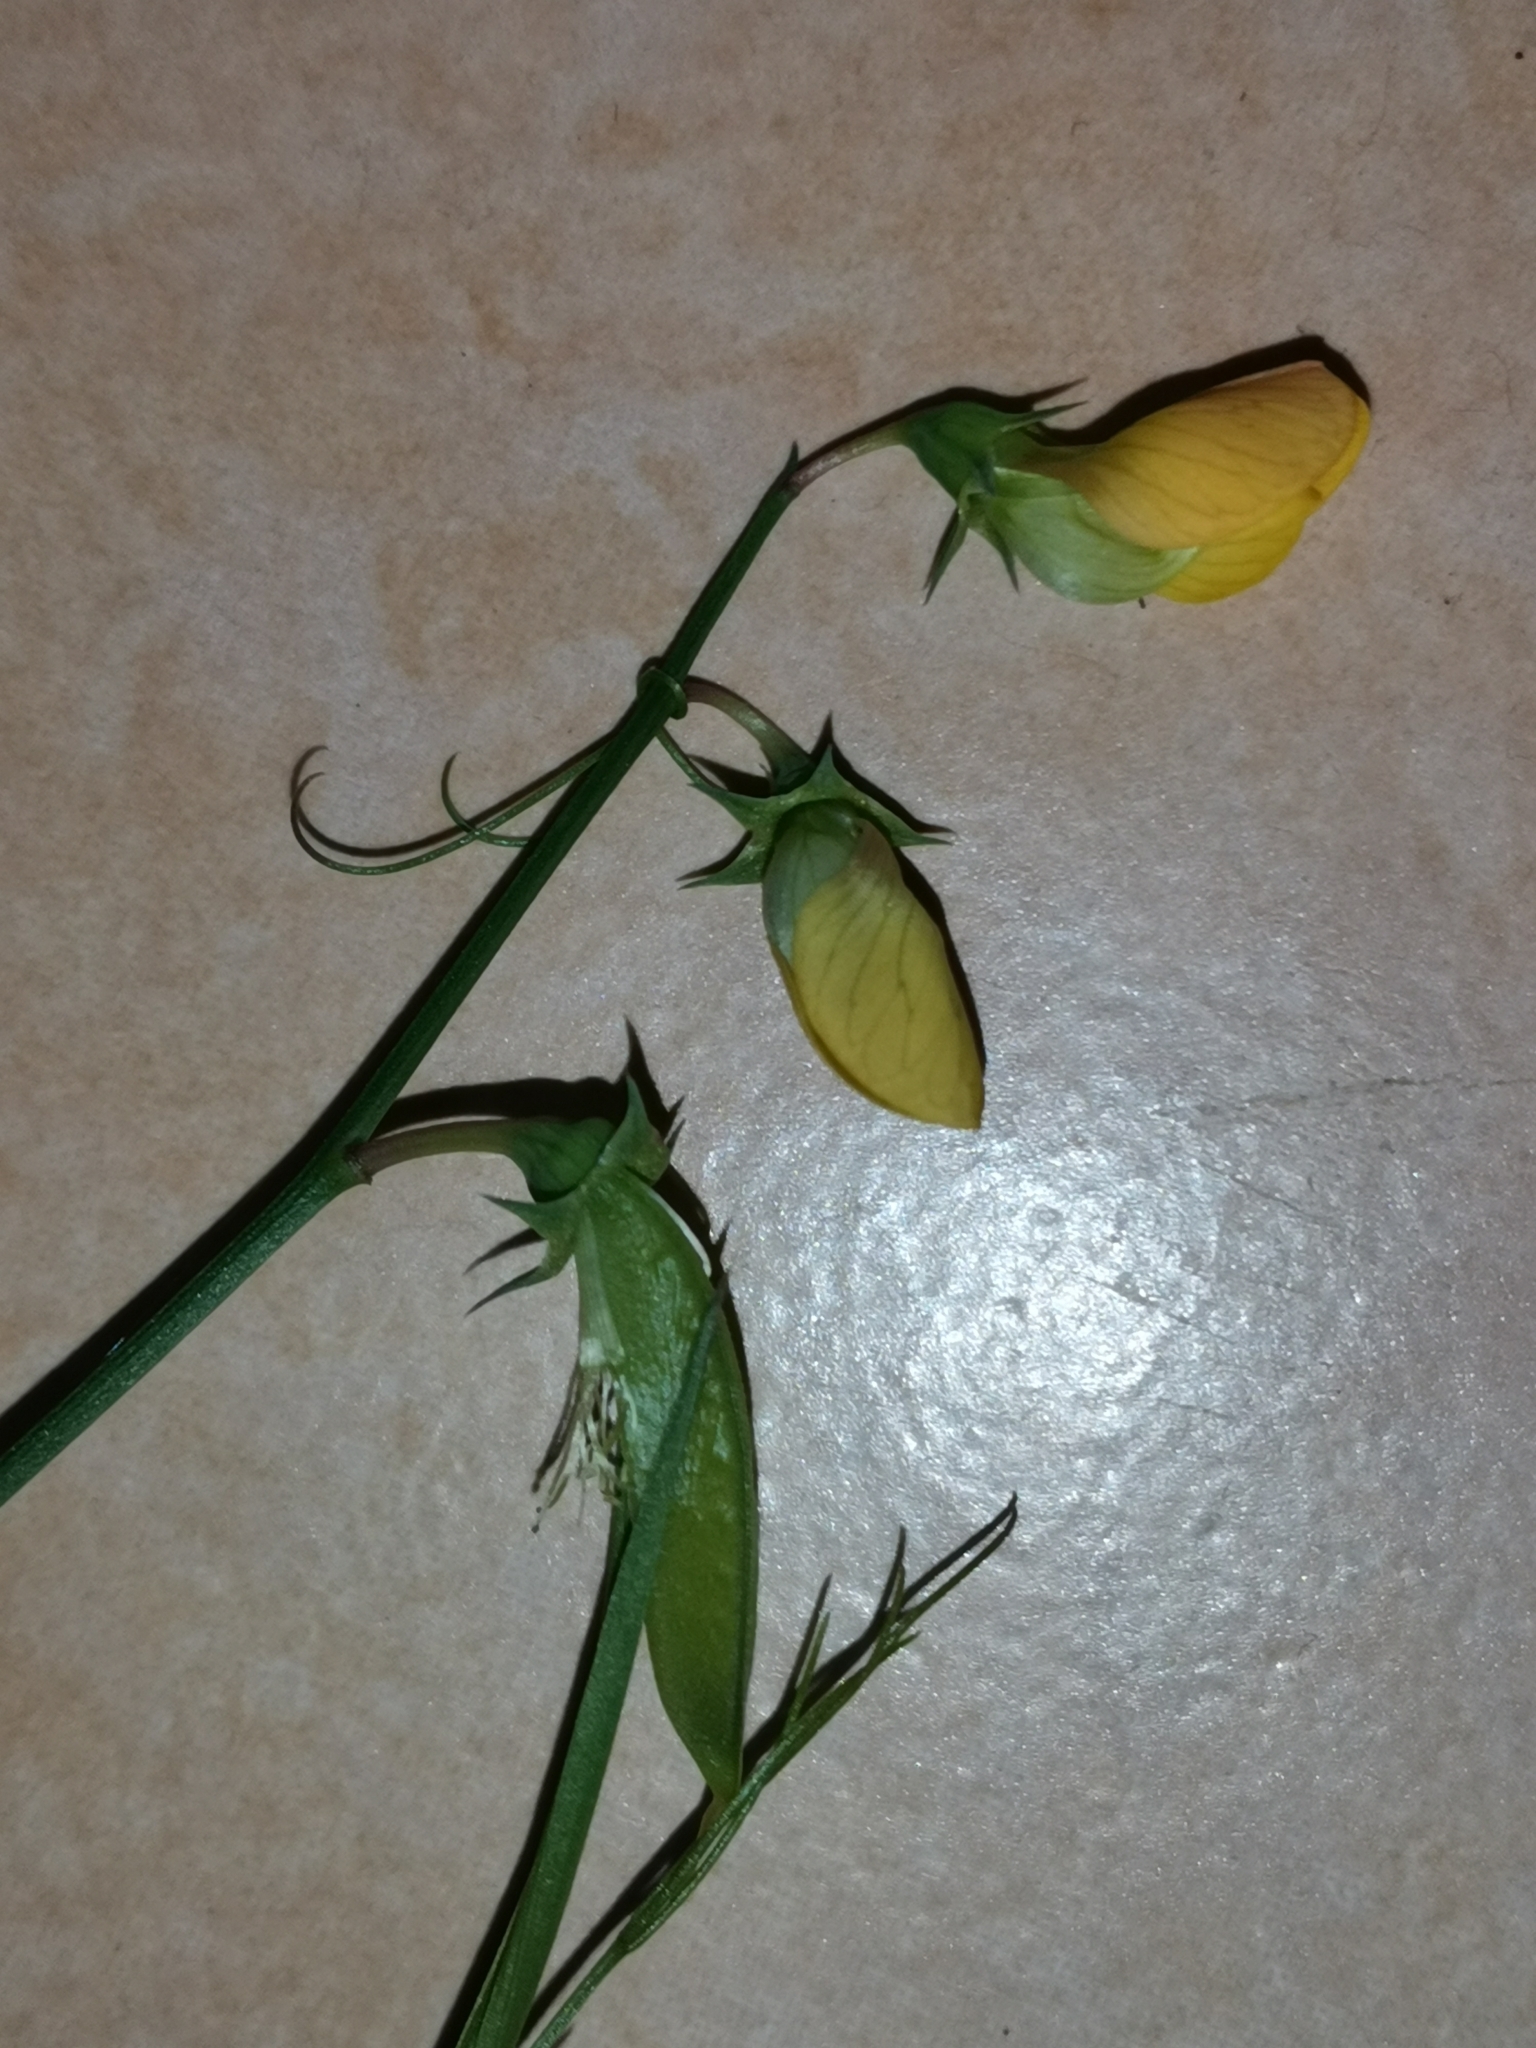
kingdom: Plantae
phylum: Tracheophyta
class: Magnoliopsida
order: Fabales
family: Fabaceae
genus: Lathyrus
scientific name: Lathyrus annuus
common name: Fodder pea
